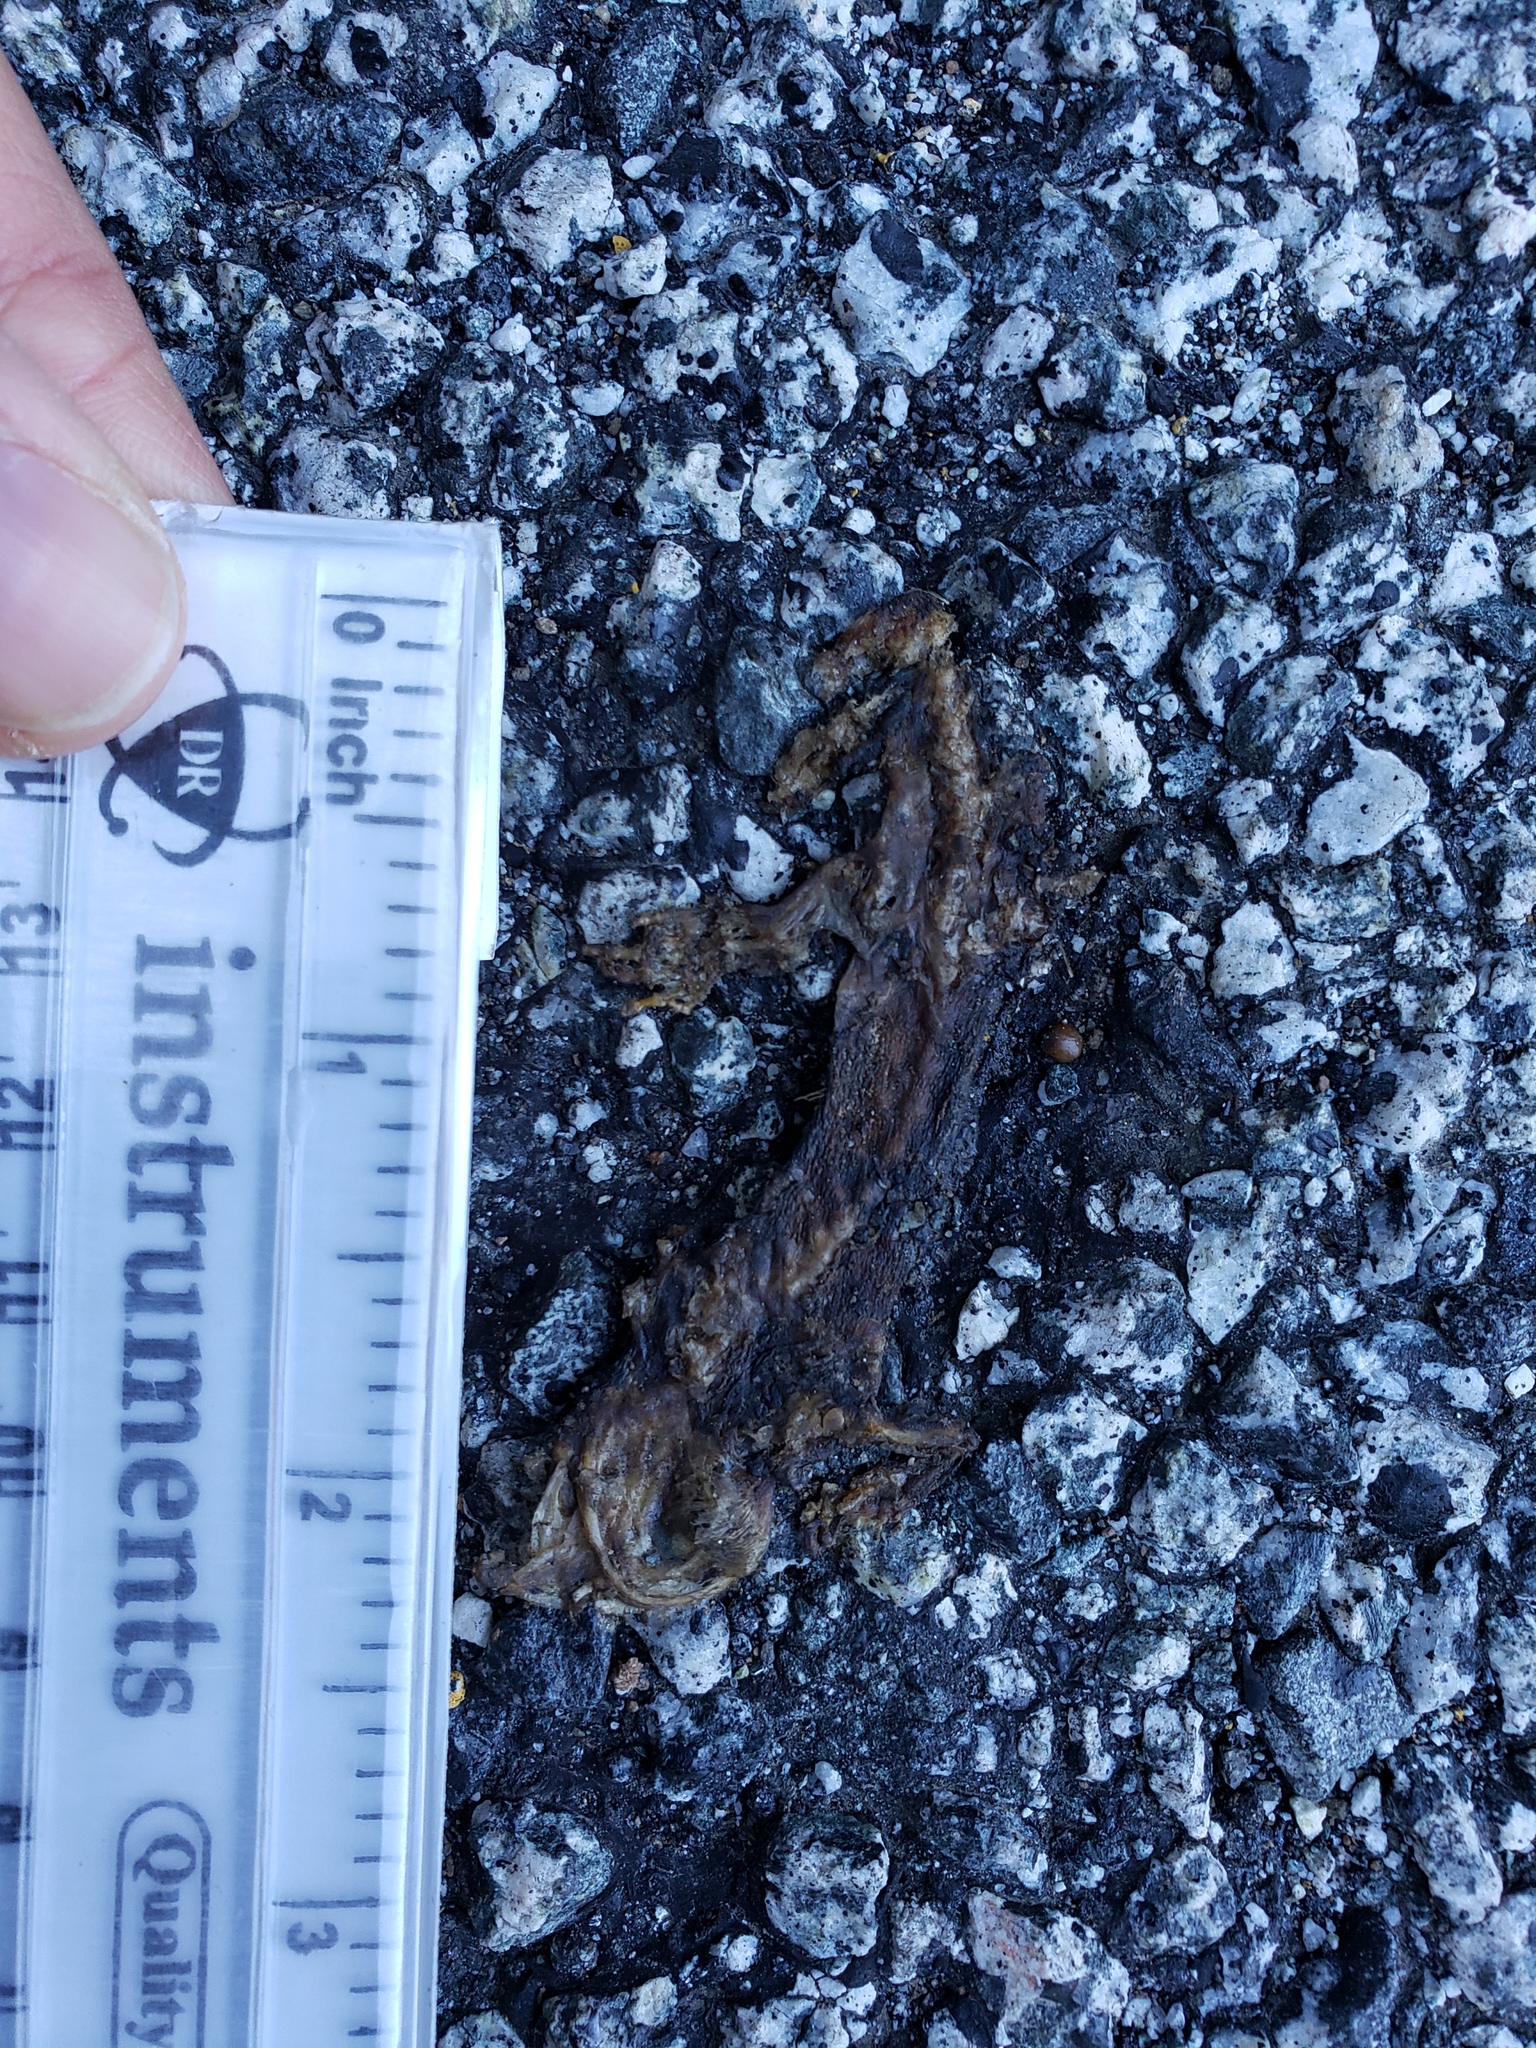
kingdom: Animalia
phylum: Chordata
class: Amphibia
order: Caudata
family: Salamandridae
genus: Taricha
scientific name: Taricha
